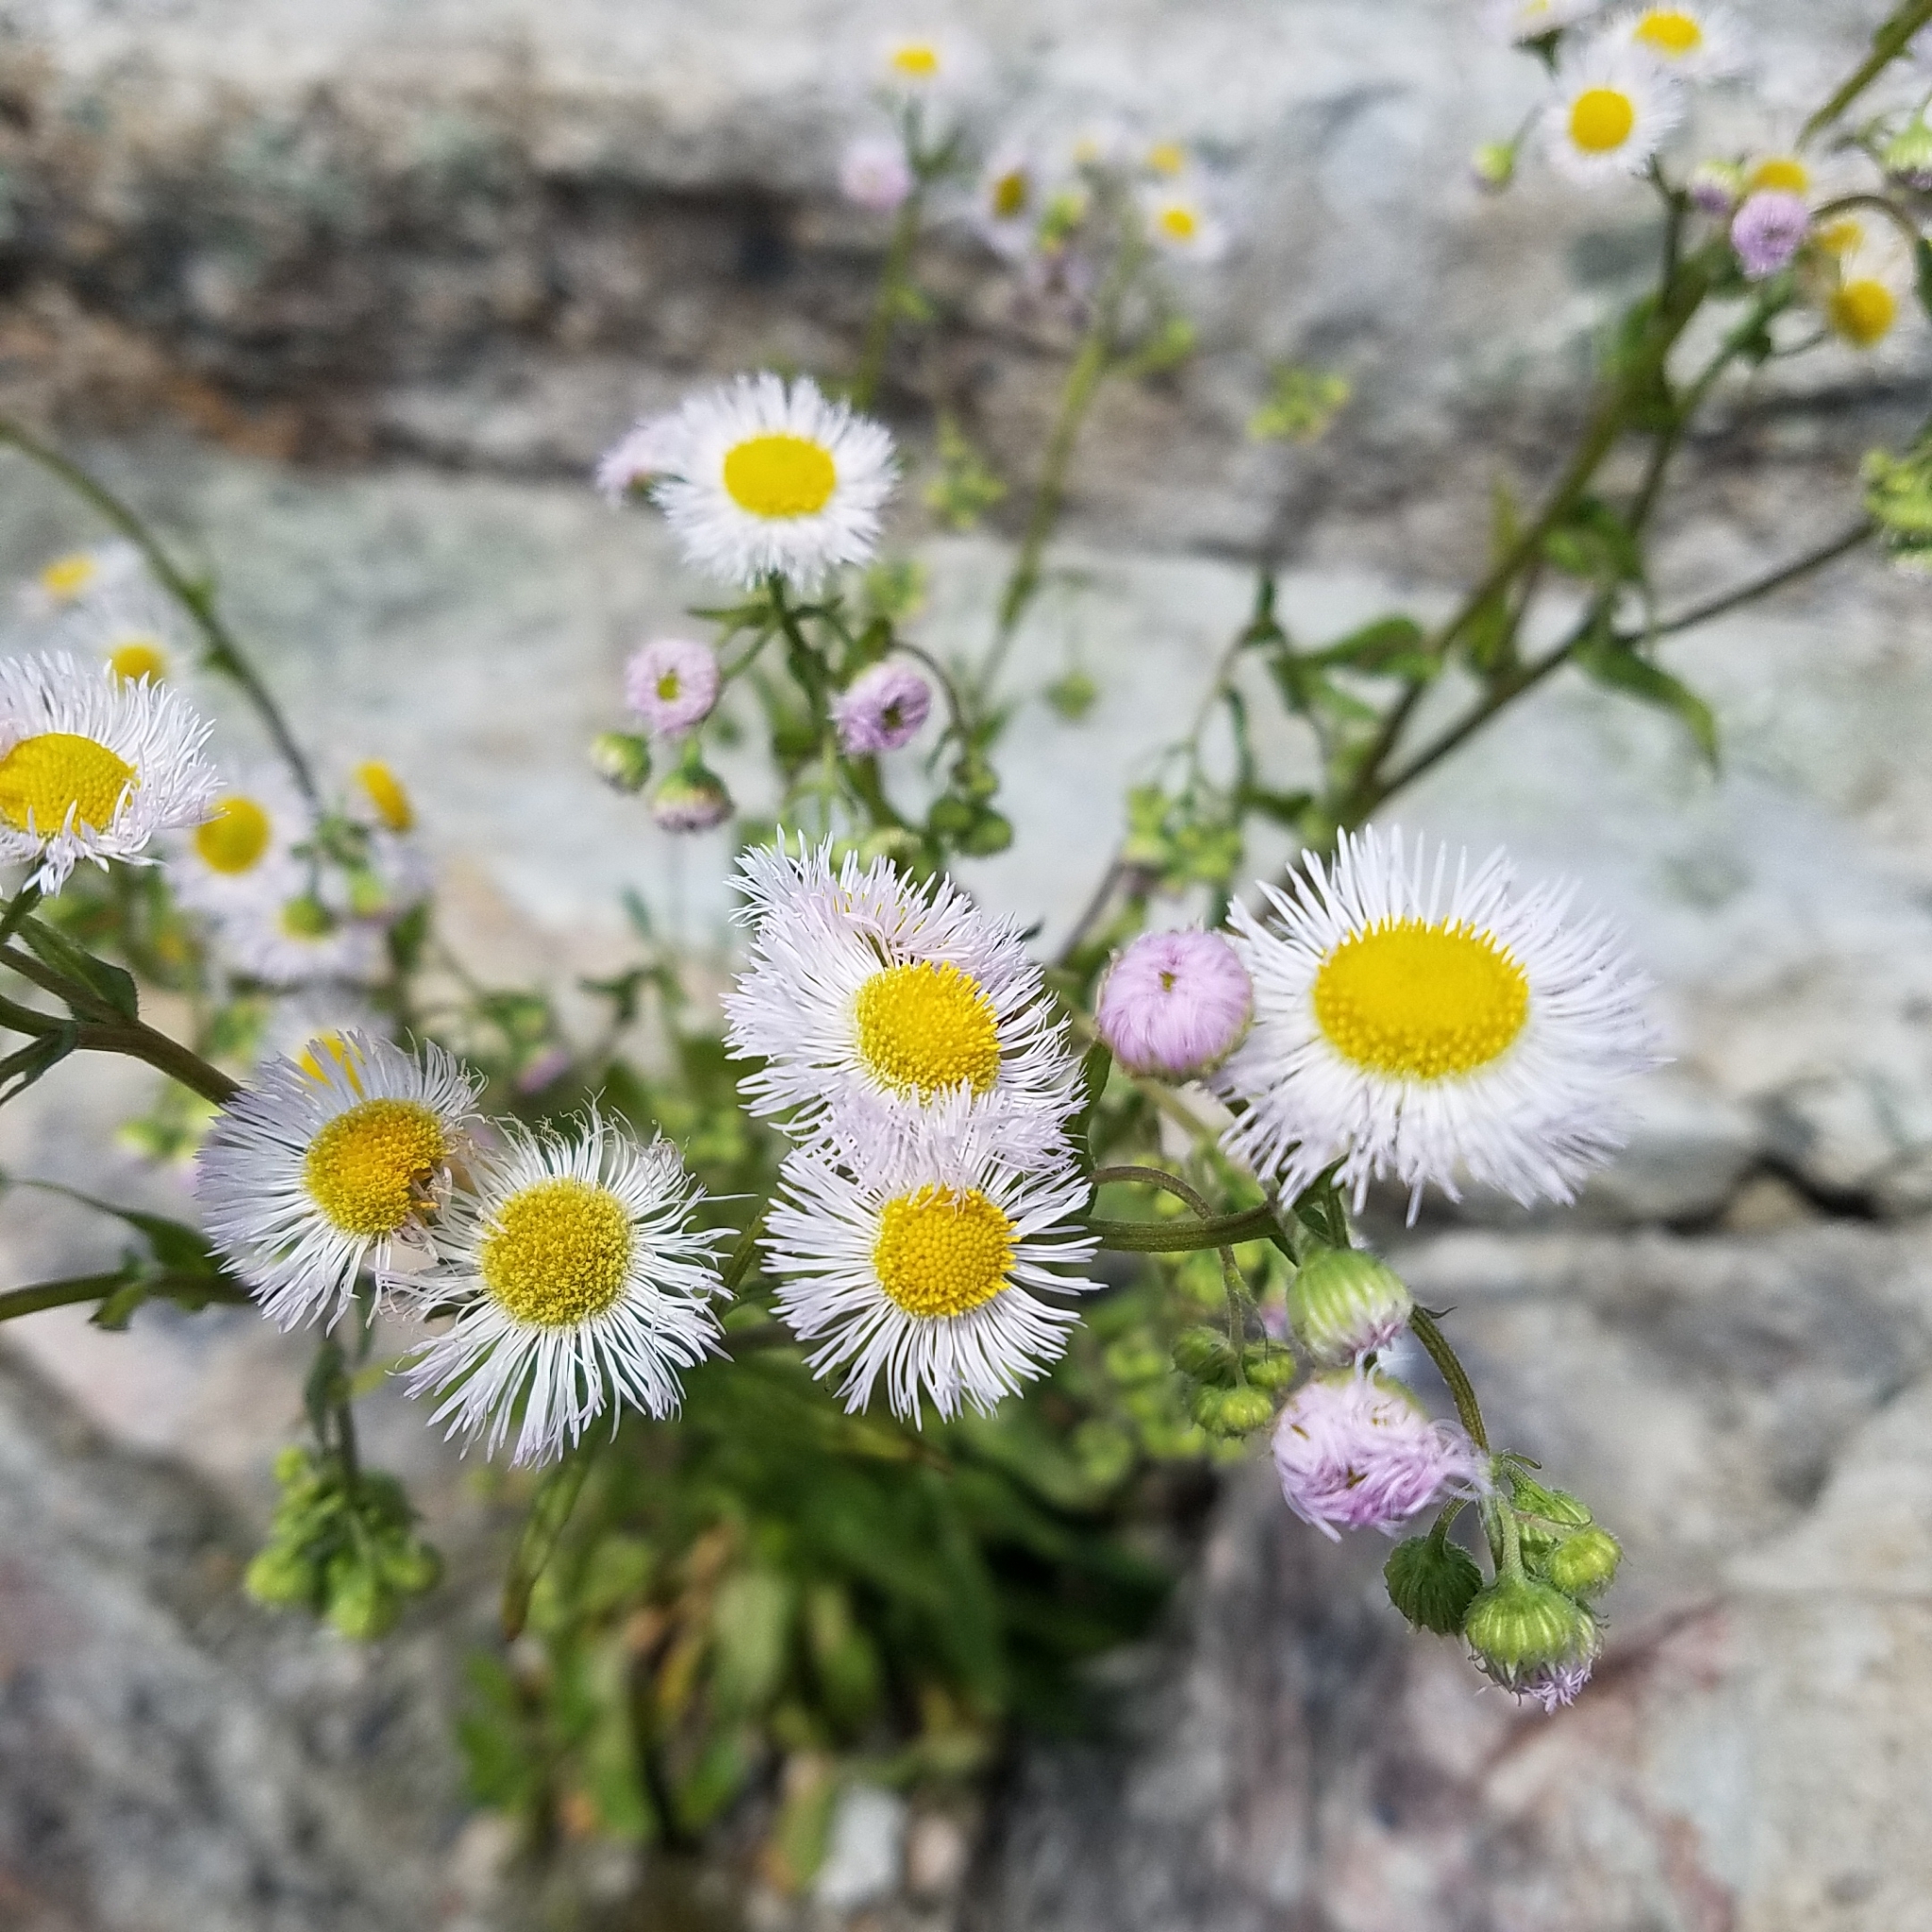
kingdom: Plantae
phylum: Tracheophyta
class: Magnoliopsida
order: Asterales
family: Asteraceae
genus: Erigeron
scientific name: Erigeron philadelphicus
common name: Robin's-plantain
